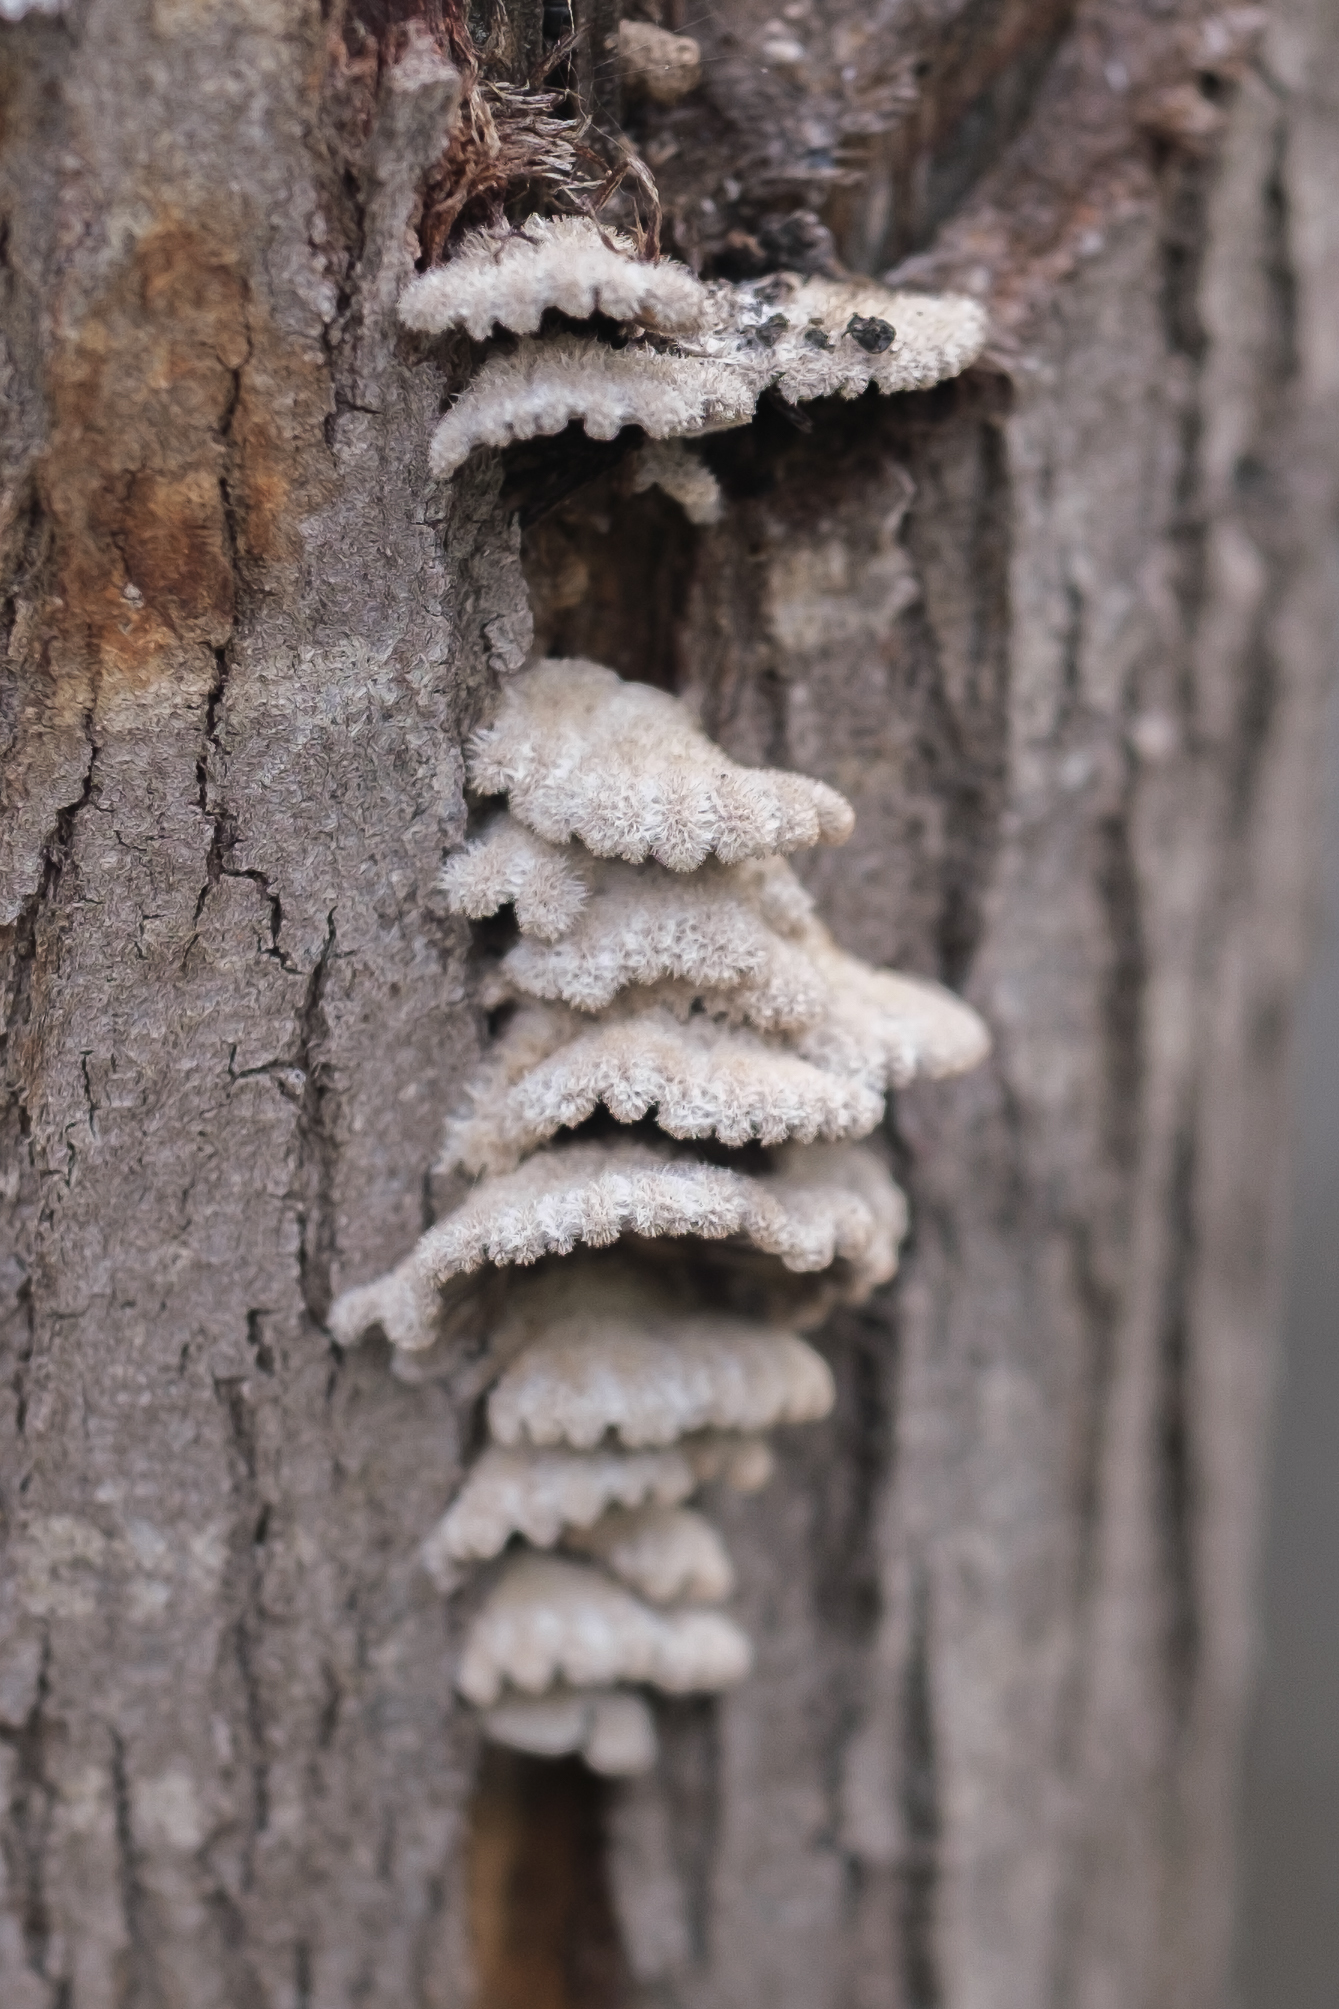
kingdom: Fungi
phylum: Basidiomycota
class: Agaricomycetes
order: Agaricales
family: Schizophyllaceae
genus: Schizophyllum
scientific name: Schizophyllum commune
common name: Common porecrust
